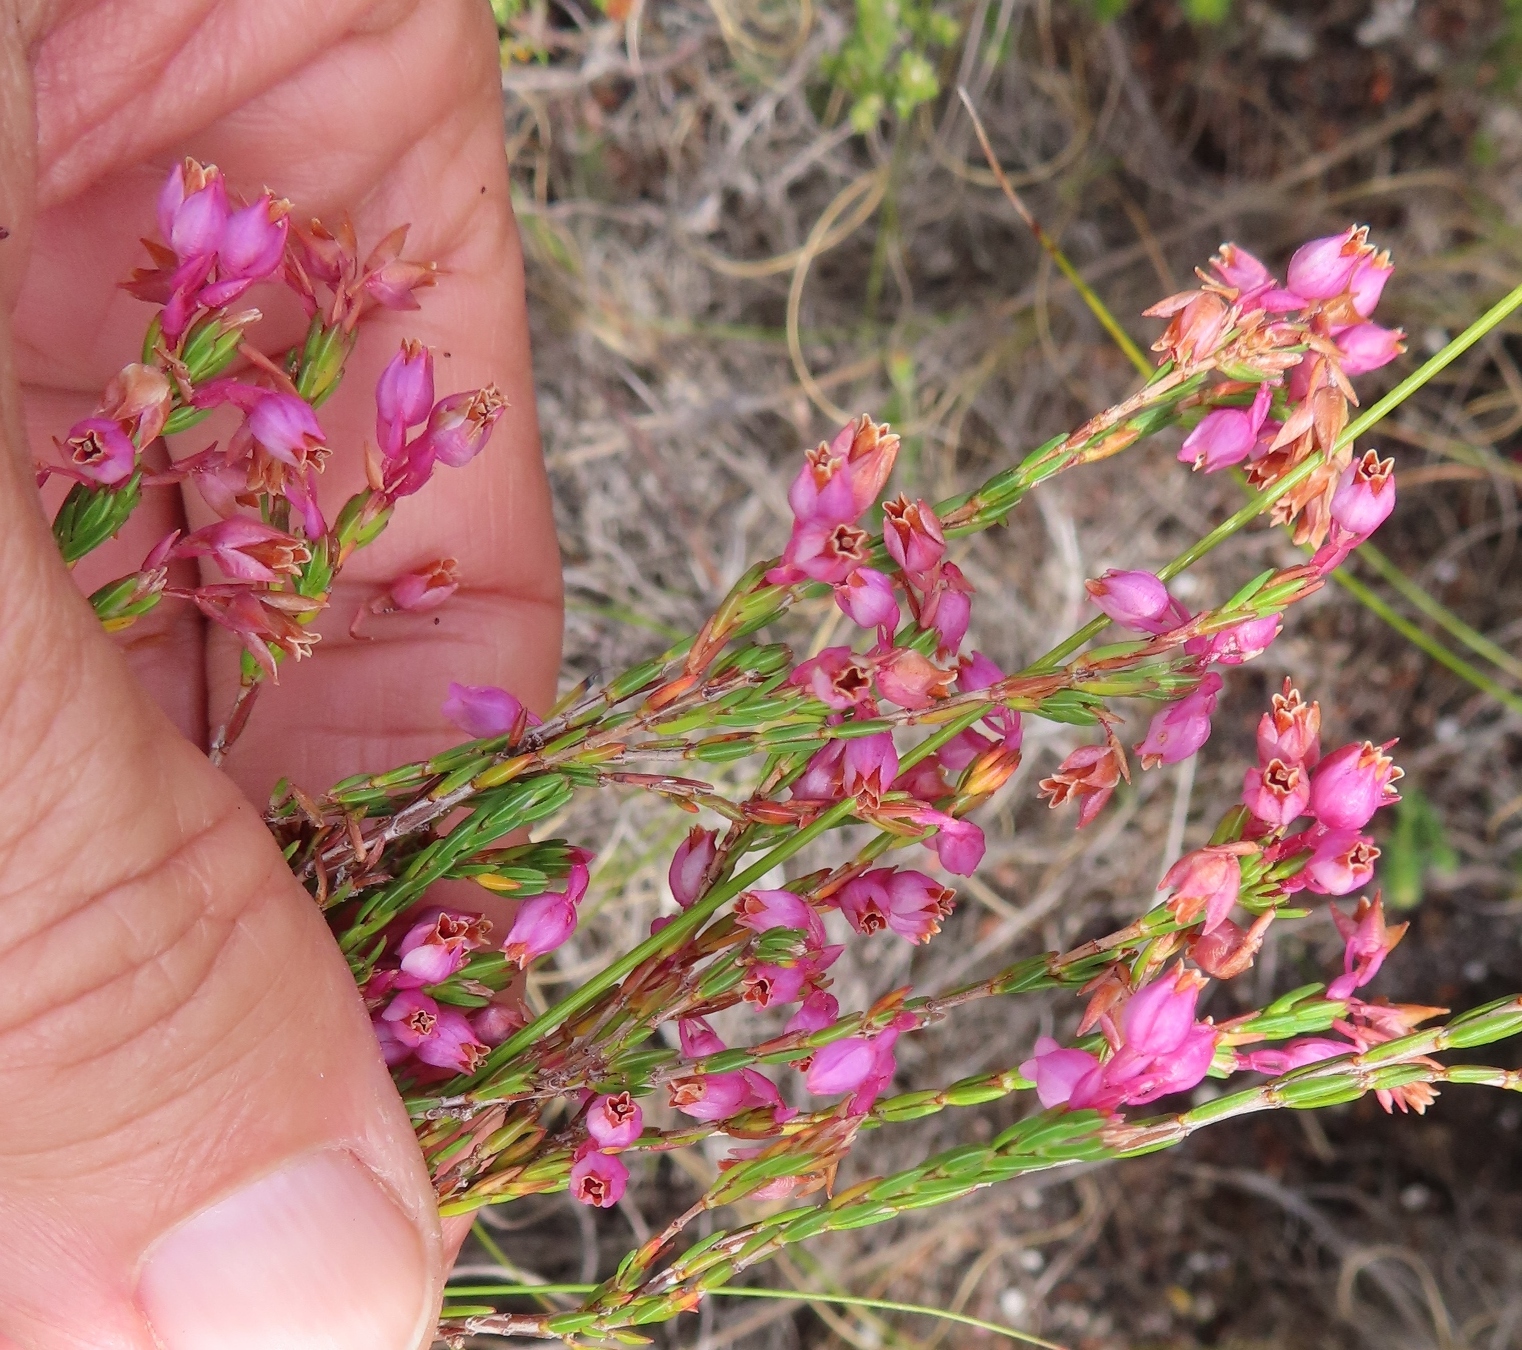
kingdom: Plantae
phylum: Tracheophyta
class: Magnoliopsida
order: Ericales
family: Ericaceae
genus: Erica
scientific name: Erica palliiflora
